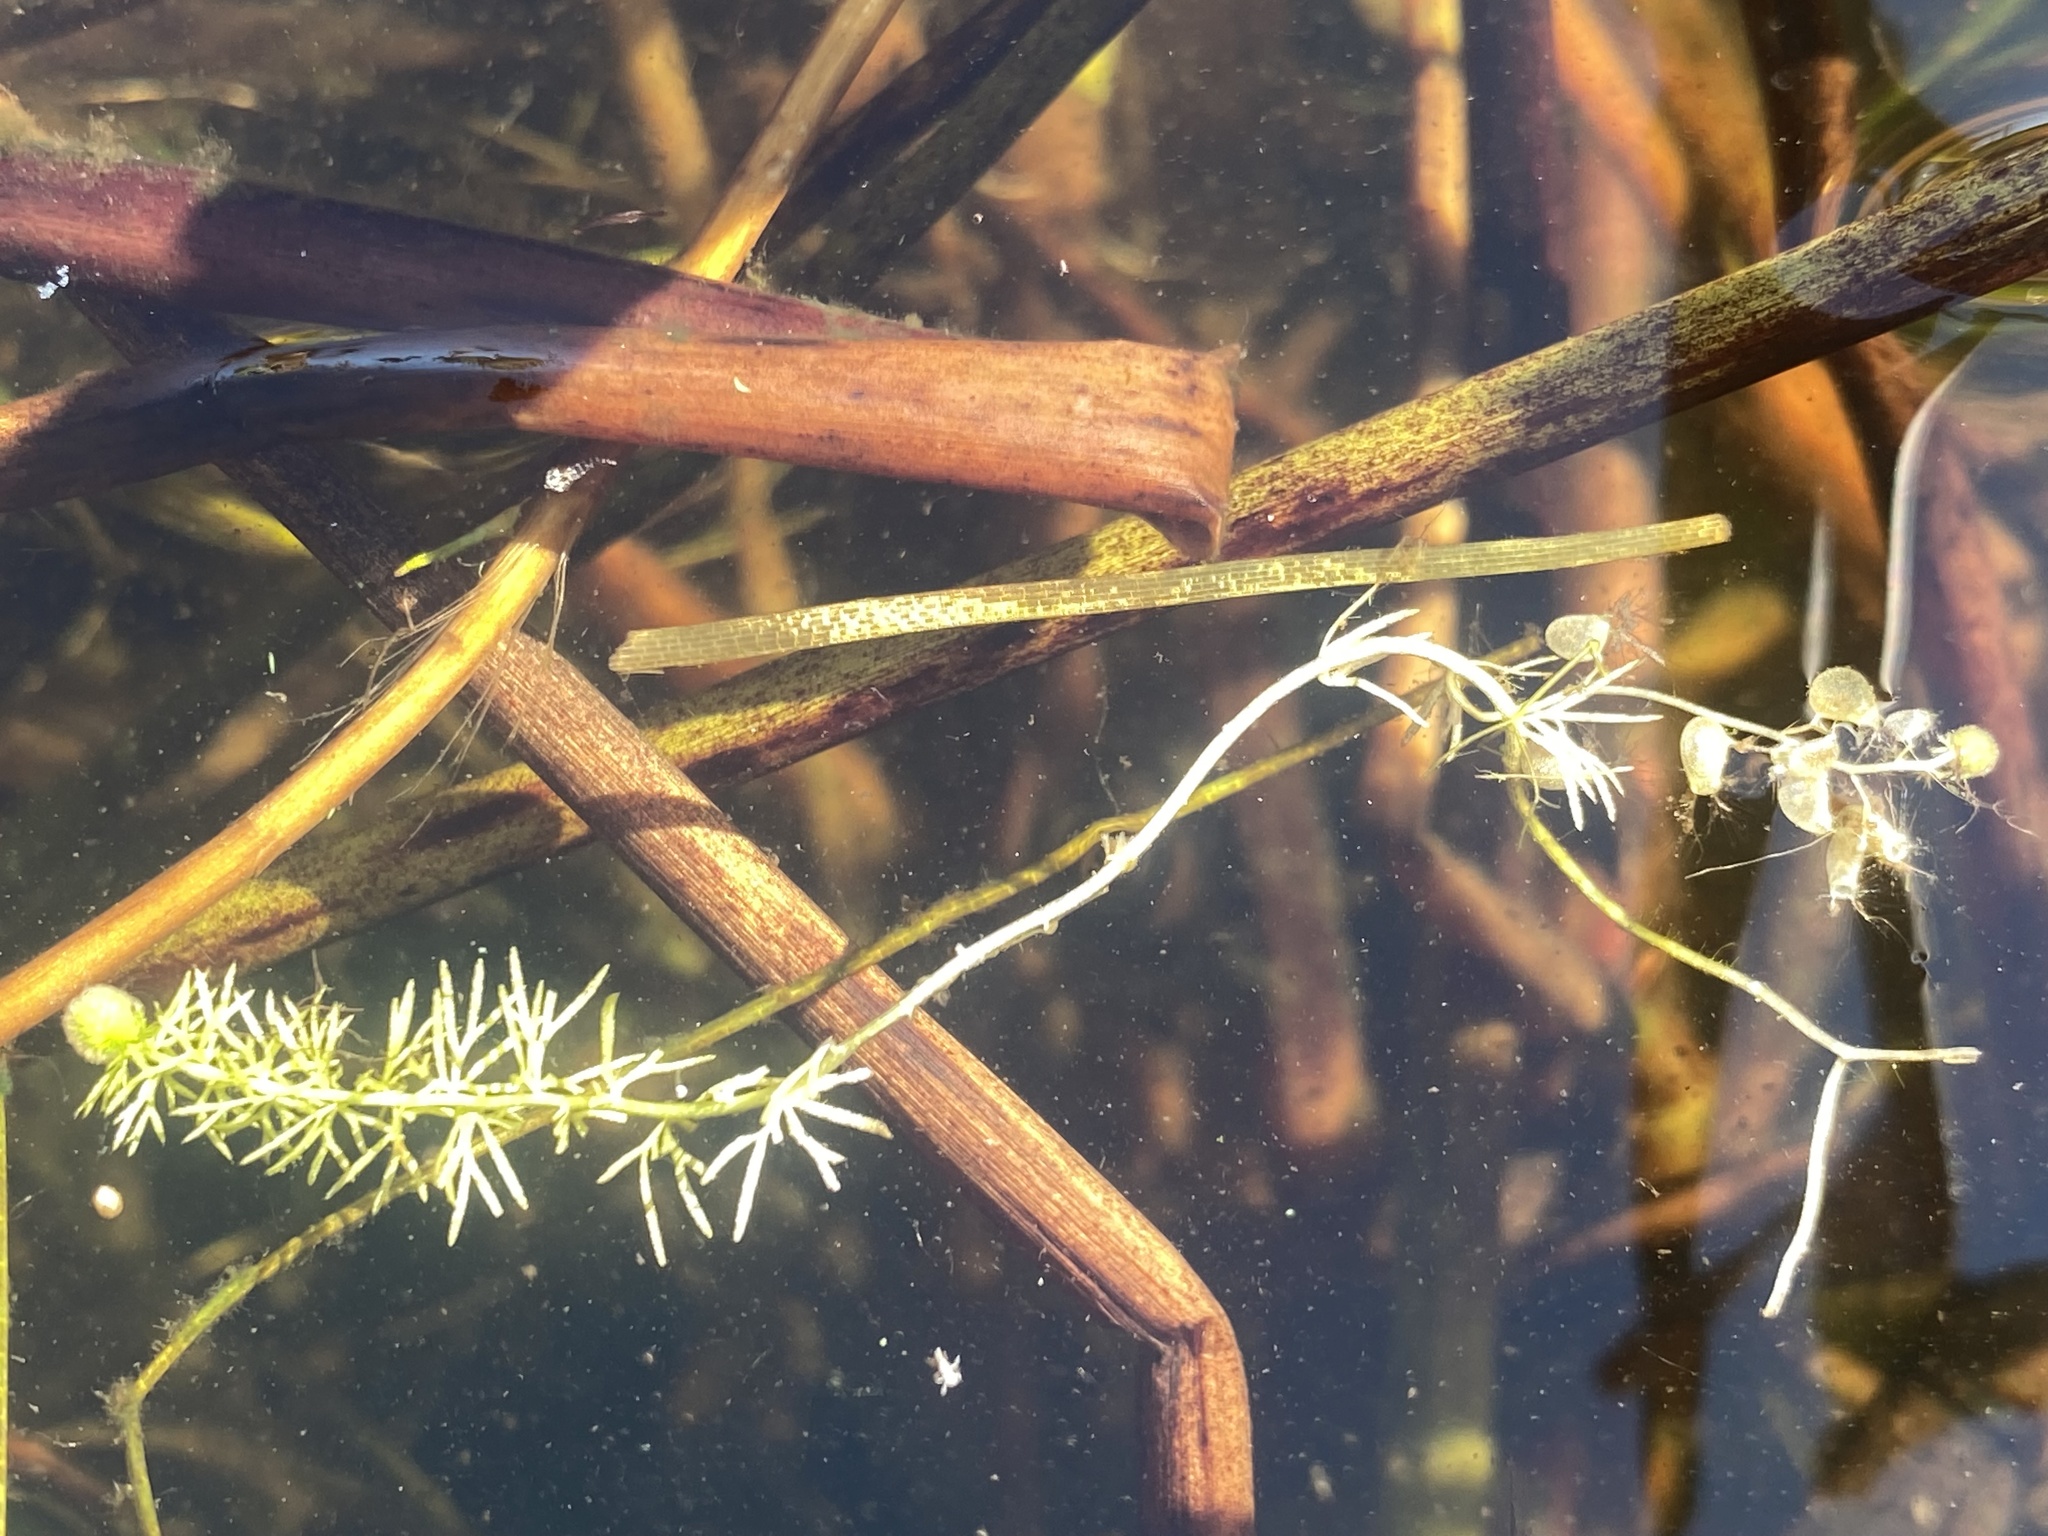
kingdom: Plantae
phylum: Tracheophyta
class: Magnoliopsida
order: Lamiales
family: Lentibulariaceae
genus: Utricularia
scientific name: Utricularia intermedia
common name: Intermediate bladderwort
